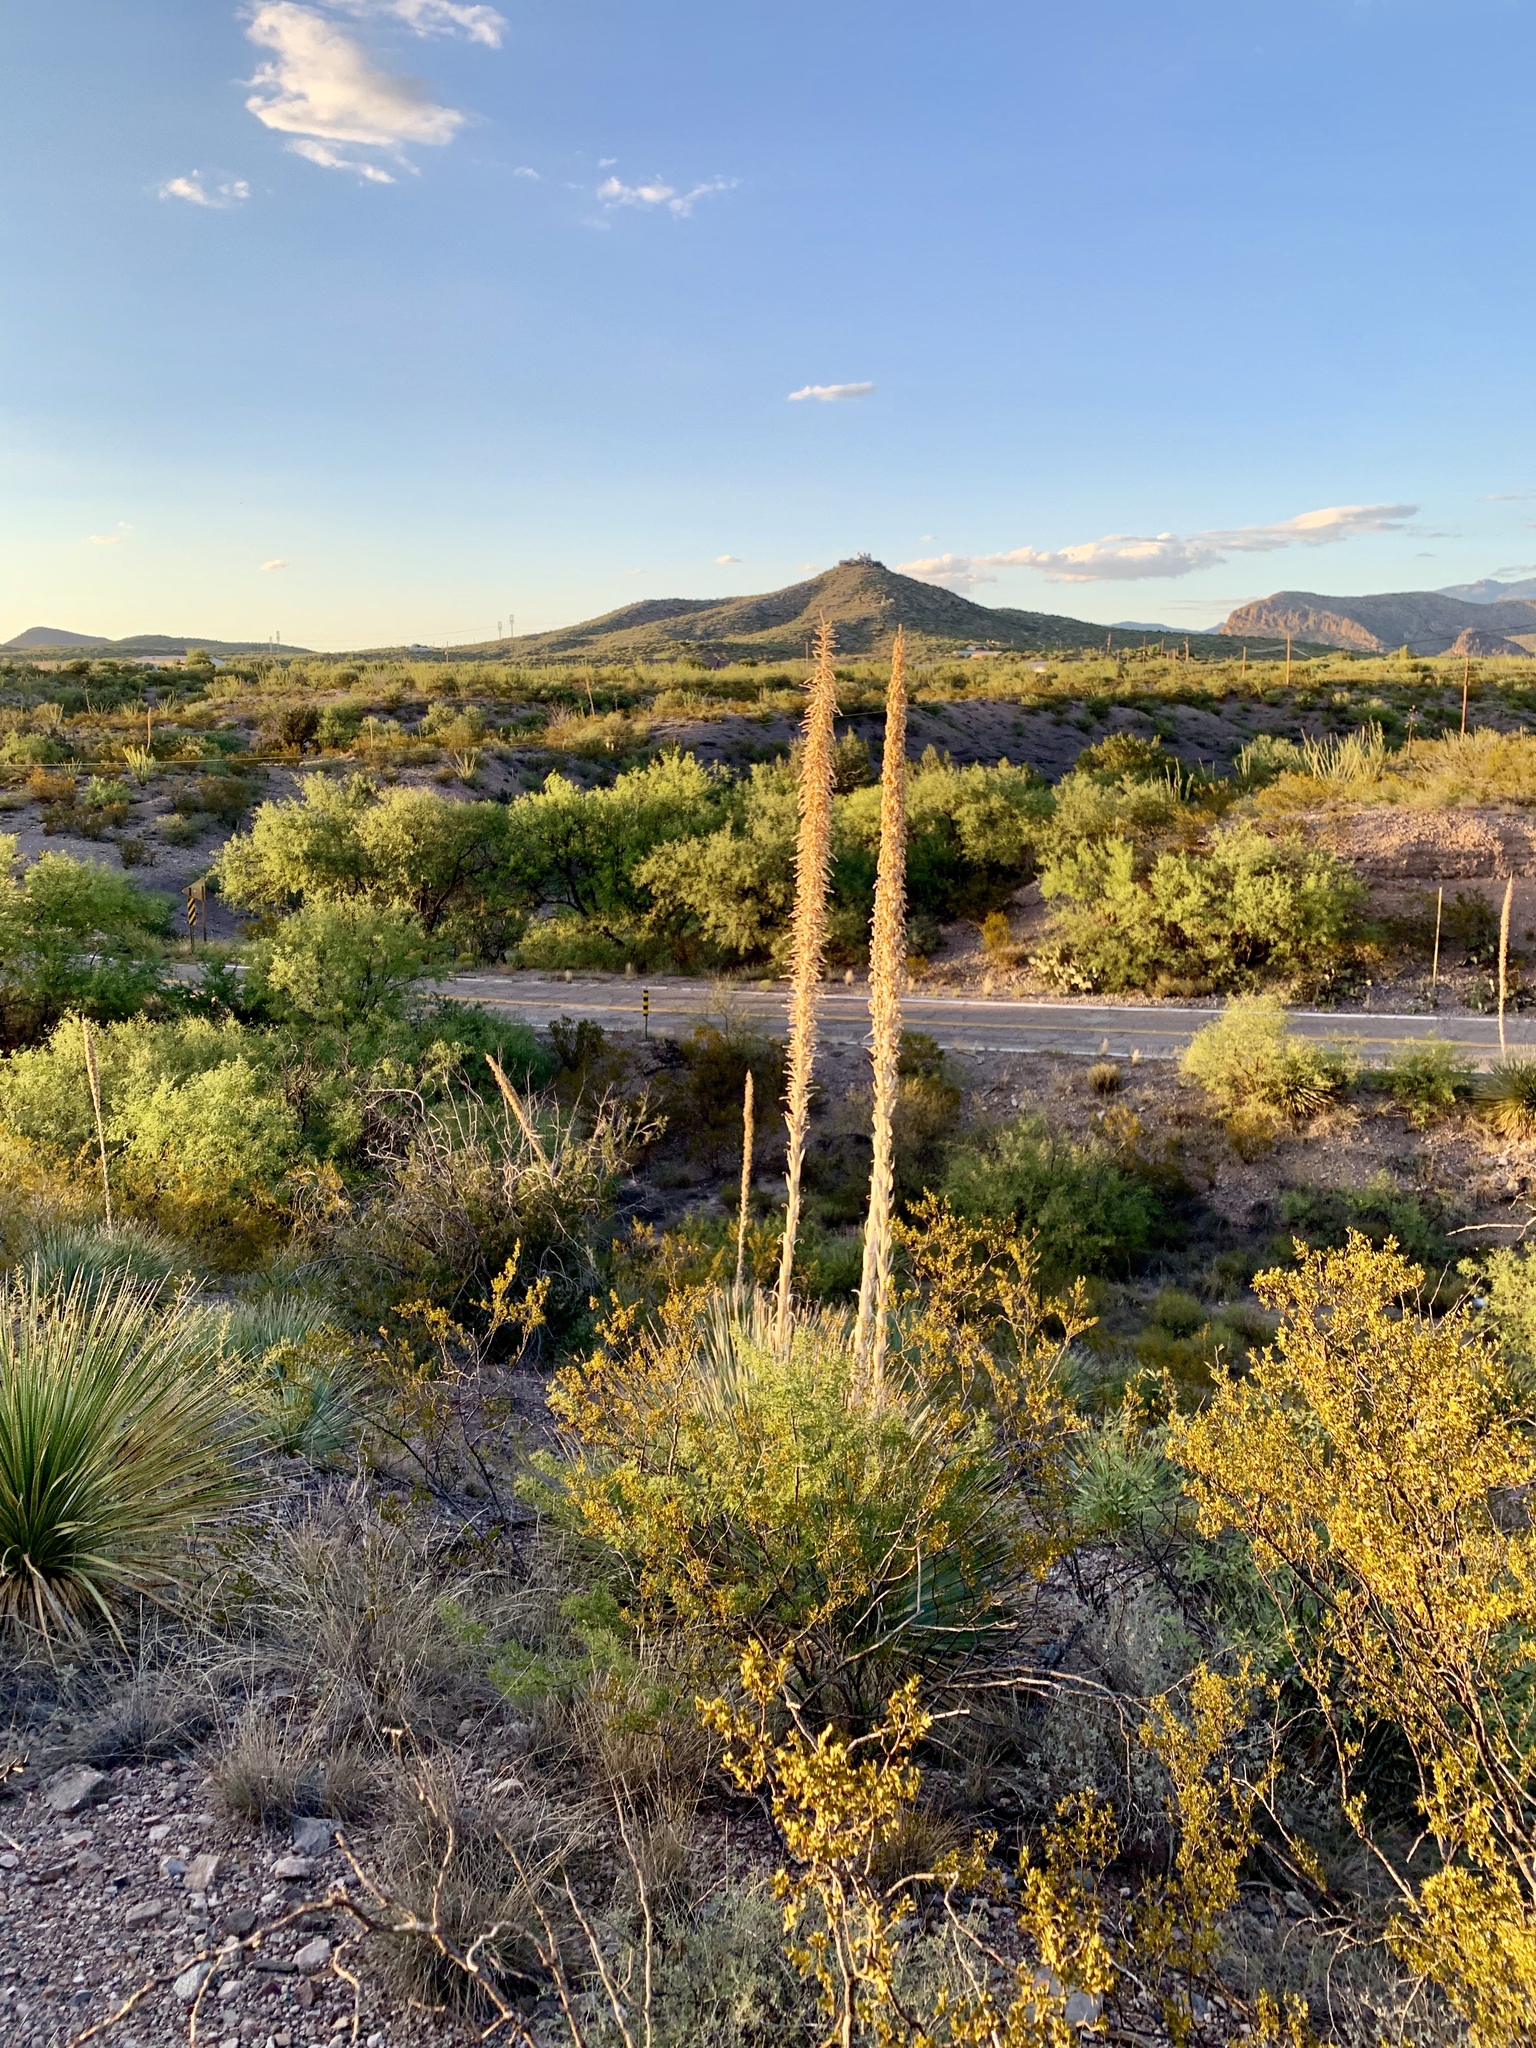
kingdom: Plantae
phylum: Tracheophyta
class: Liliopsida
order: Asparagales
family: Asparagaceae
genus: Dasylirion
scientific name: Dasylirion wheeleri
